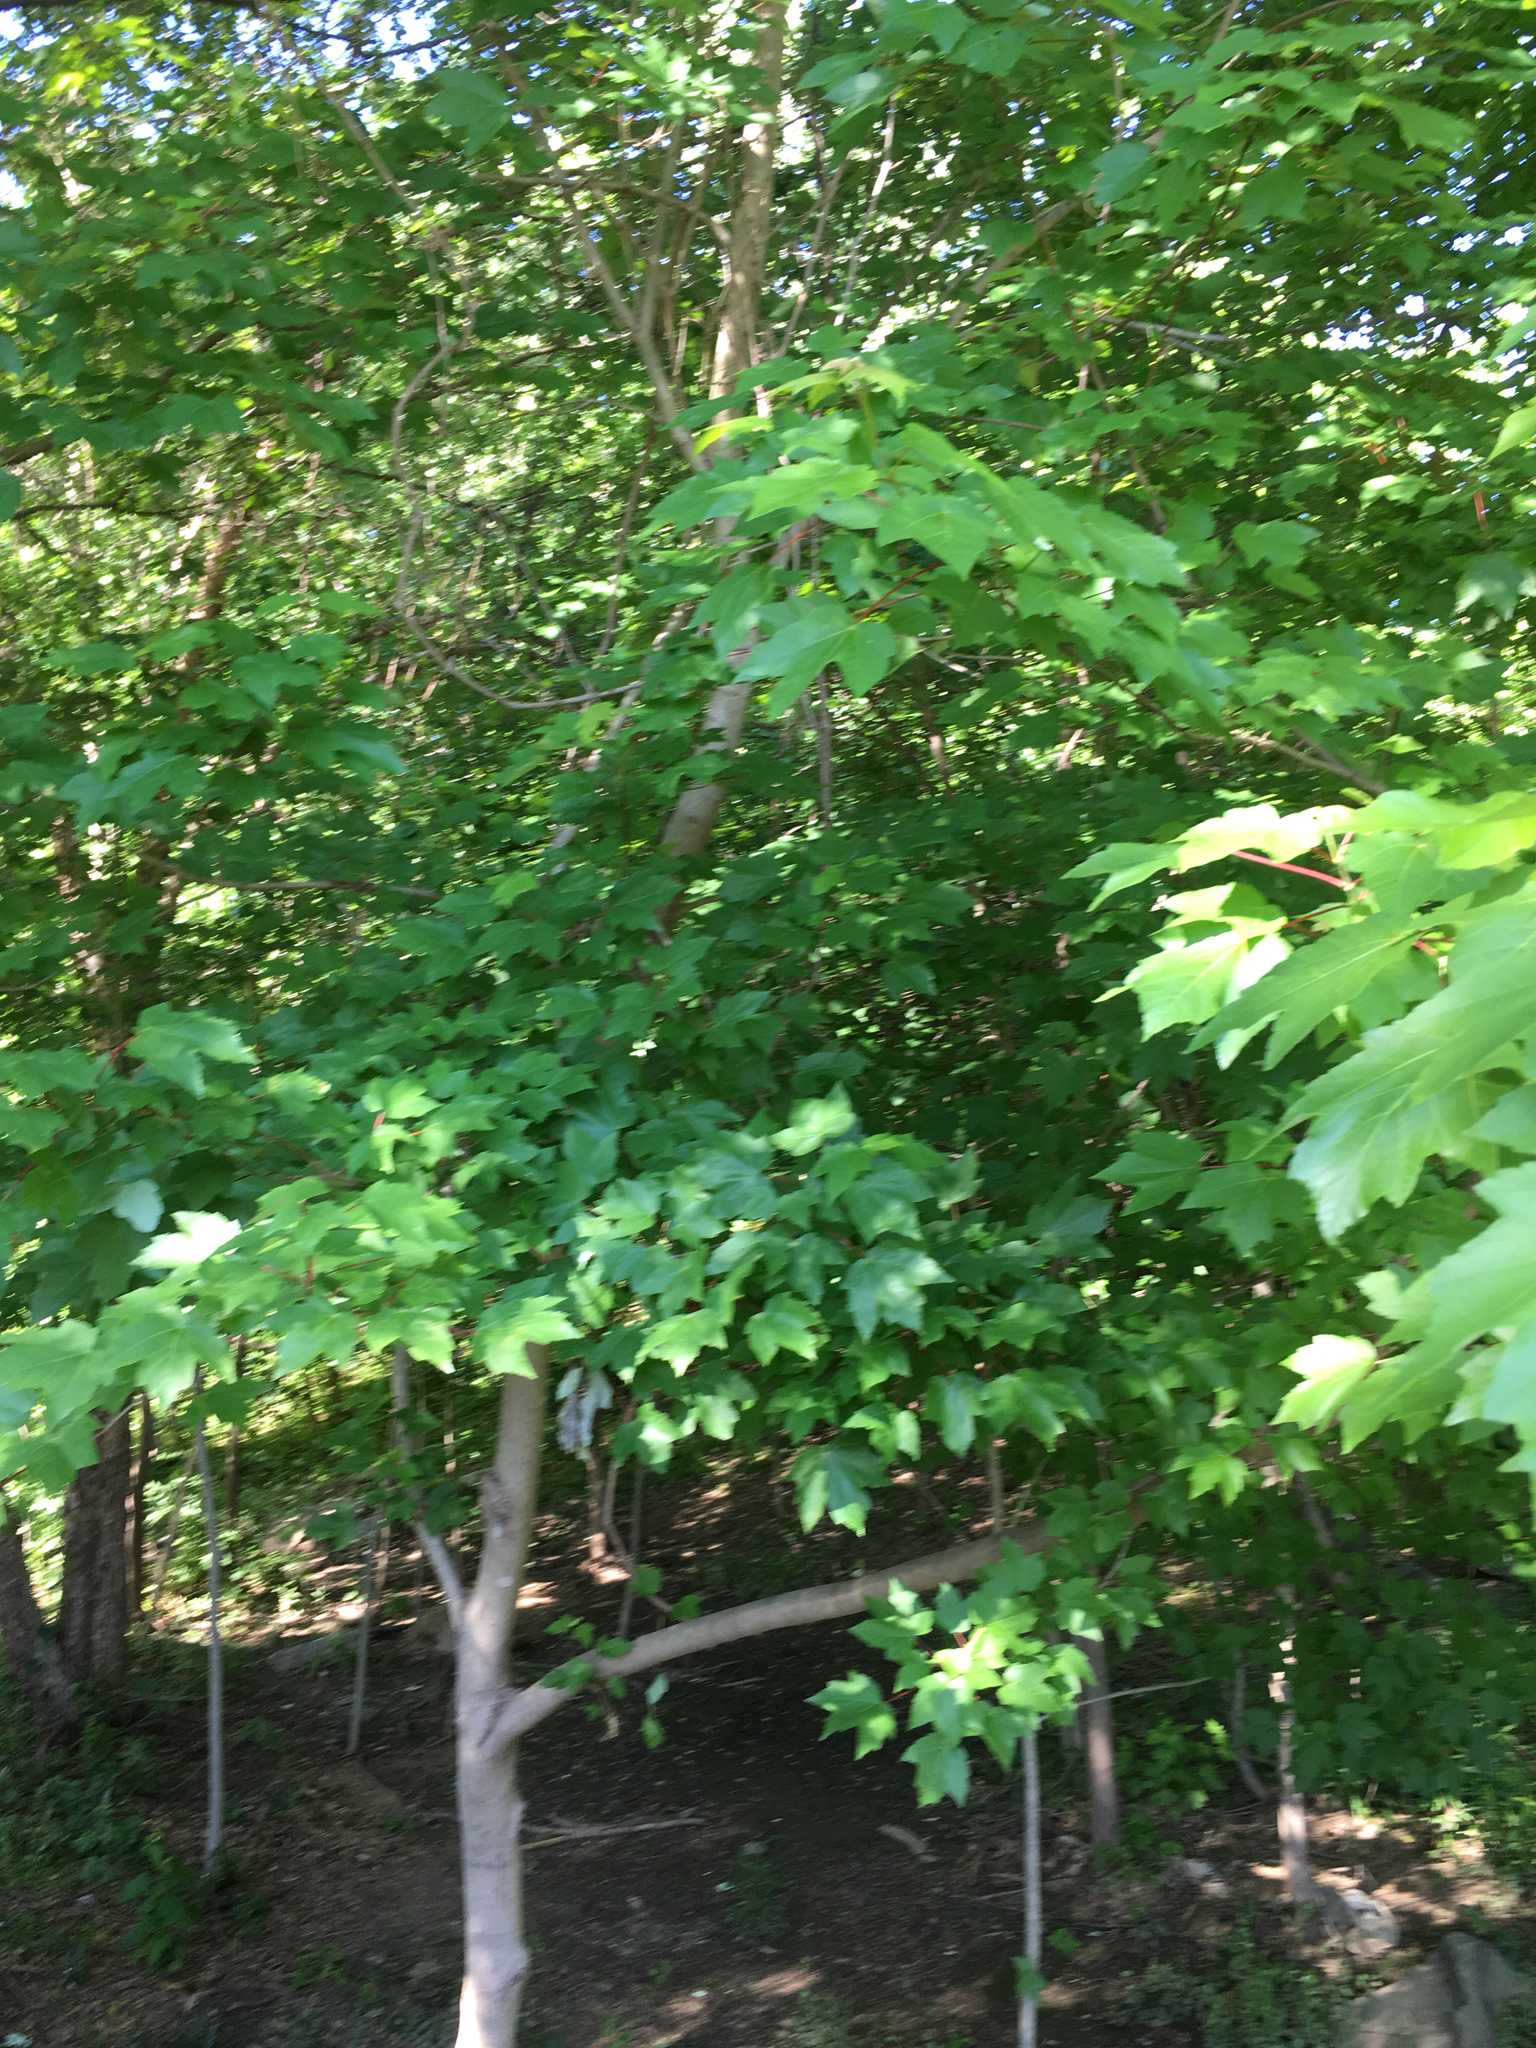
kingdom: Plantae
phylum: Tracheophyta
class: Magnoliopsida
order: Sapindales
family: Sapindaceae
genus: Acer
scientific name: Acer rubrum
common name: Red maple
